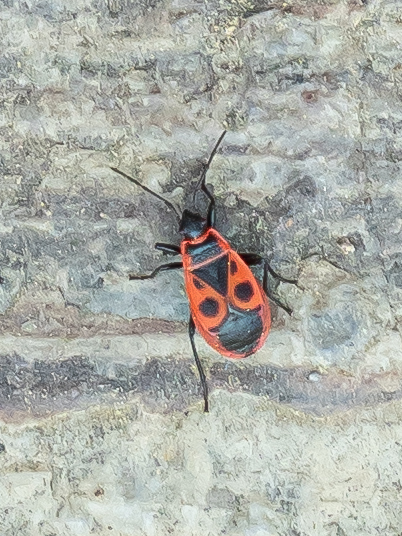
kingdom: Animalia
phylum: Arthropoda
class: Insecta
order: Hemiptera
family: Pyrrhocoridae
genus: Pyrrhocoris
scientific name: Pyrrhocoris apterus
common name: Firebug
